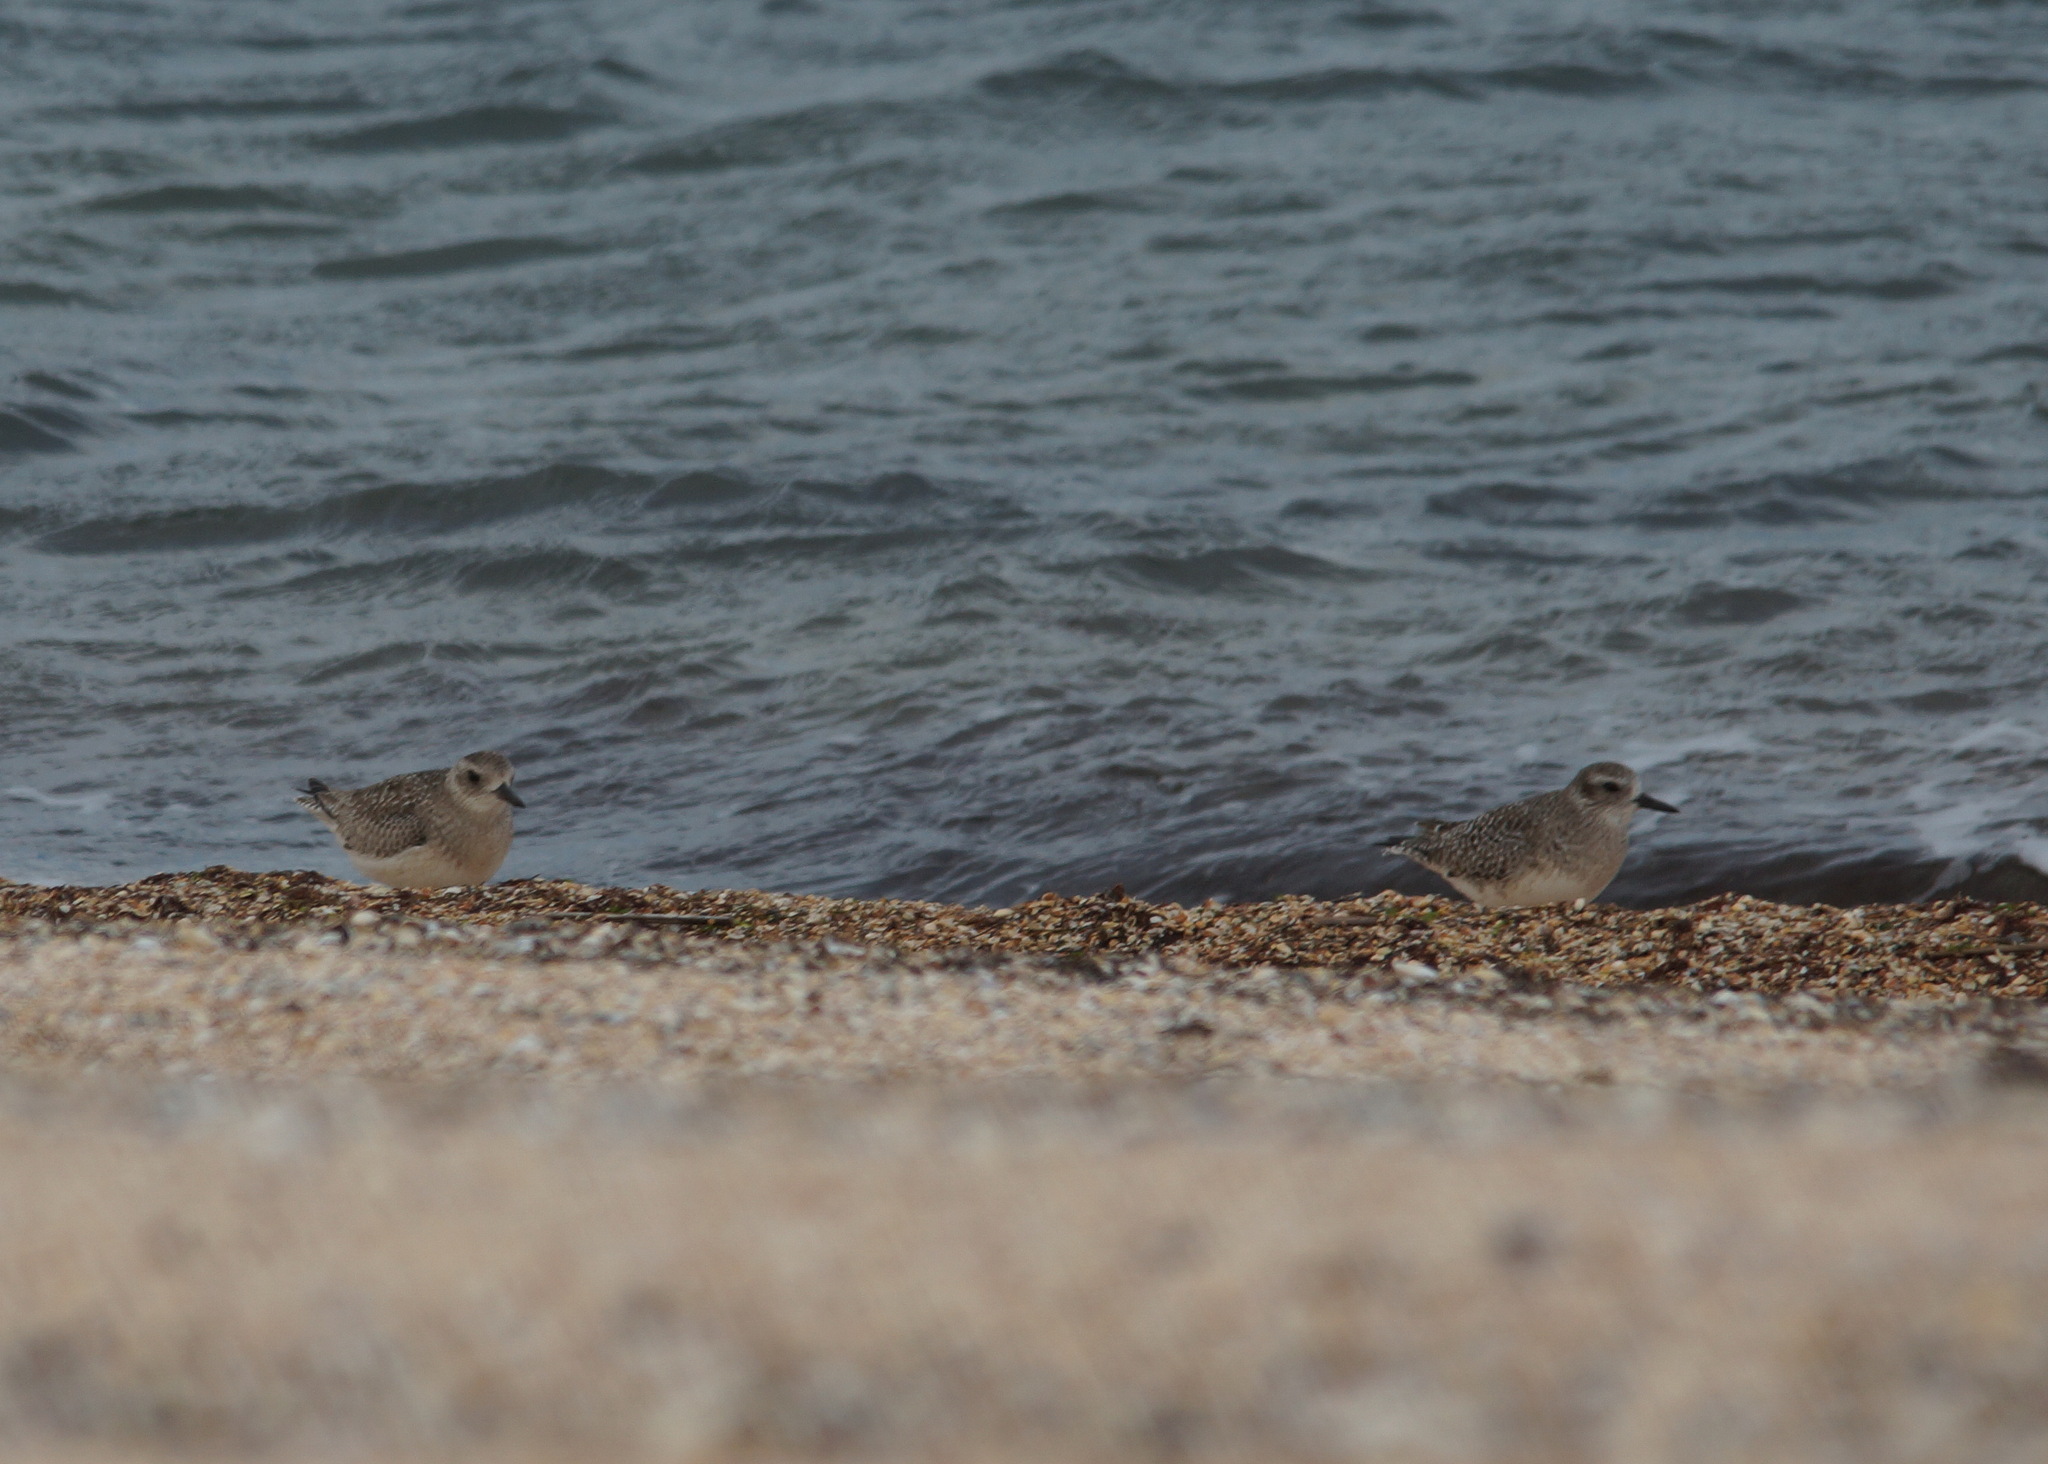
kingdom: Animalia
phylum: Chordata
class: Aves
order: Charadriiformes
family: Charadriidae
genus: Pluvialis
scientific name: Pluvialis squatarola
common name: Grey plover
